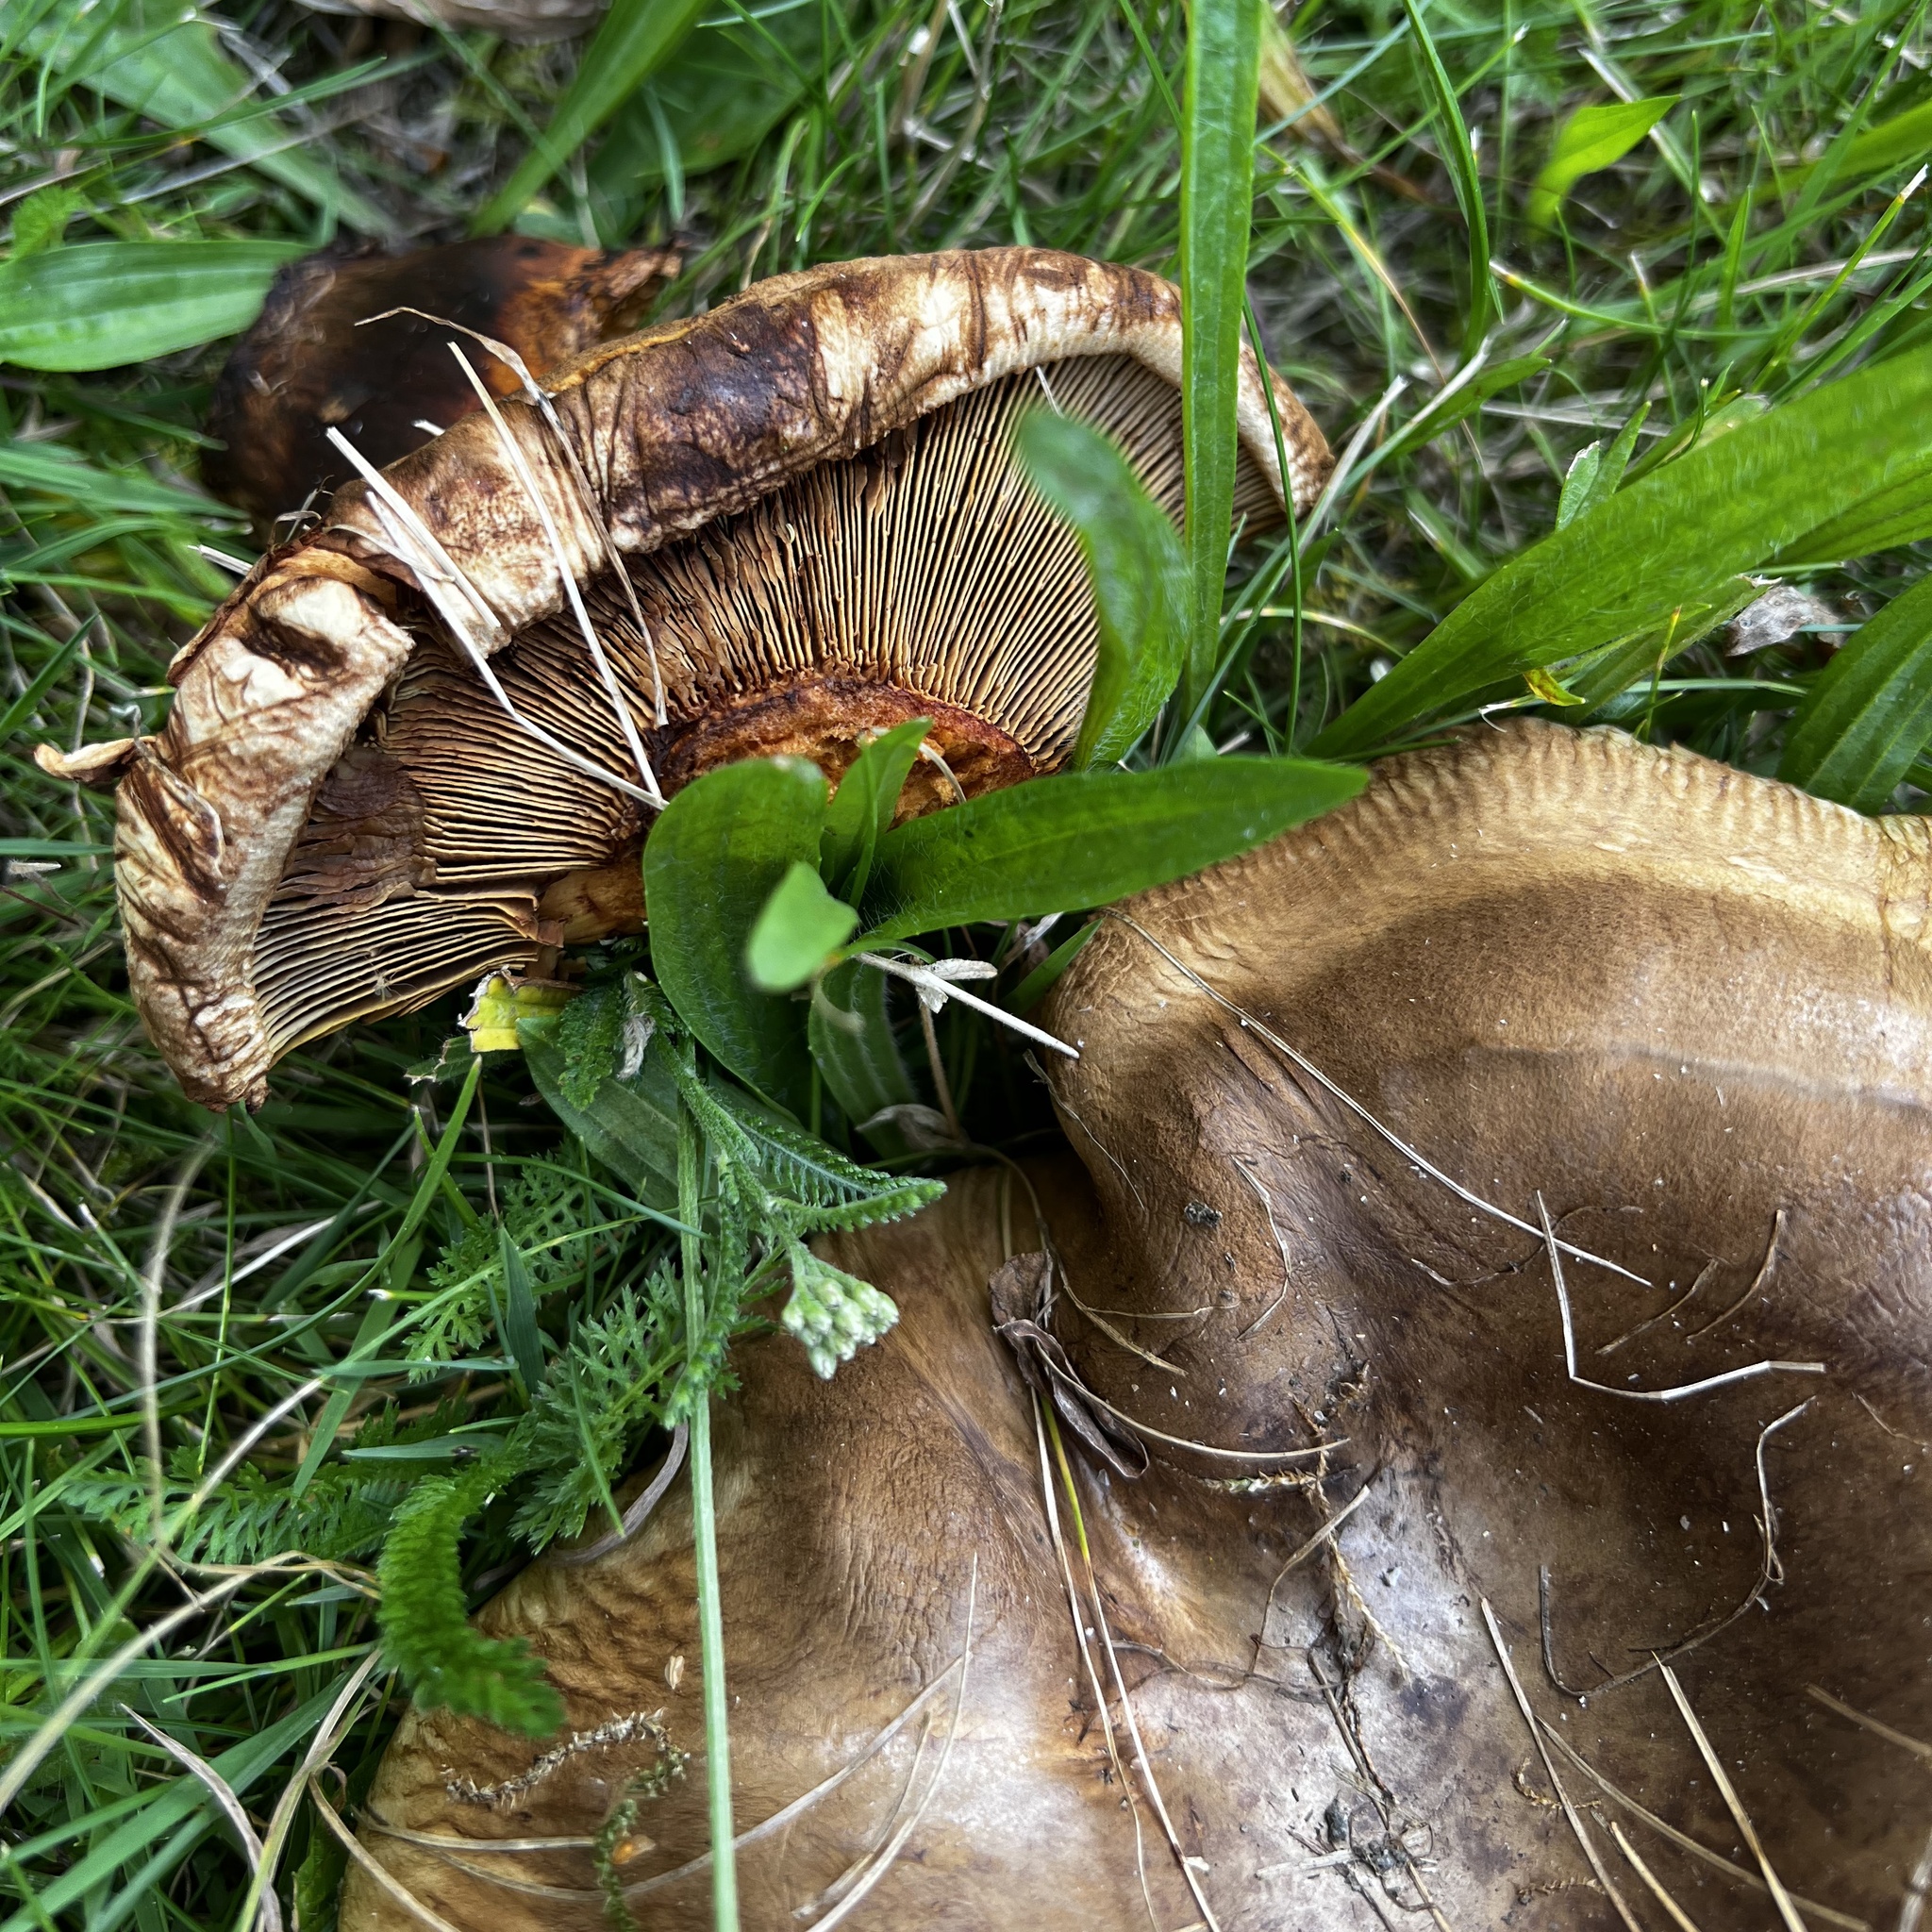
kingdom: Fungi
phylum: Basidiomycota
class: Agaricomycetes
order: Boletales
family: Paxillaceae
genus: Paxillus
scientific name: Paxillus involutus
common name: Brown roll rim
